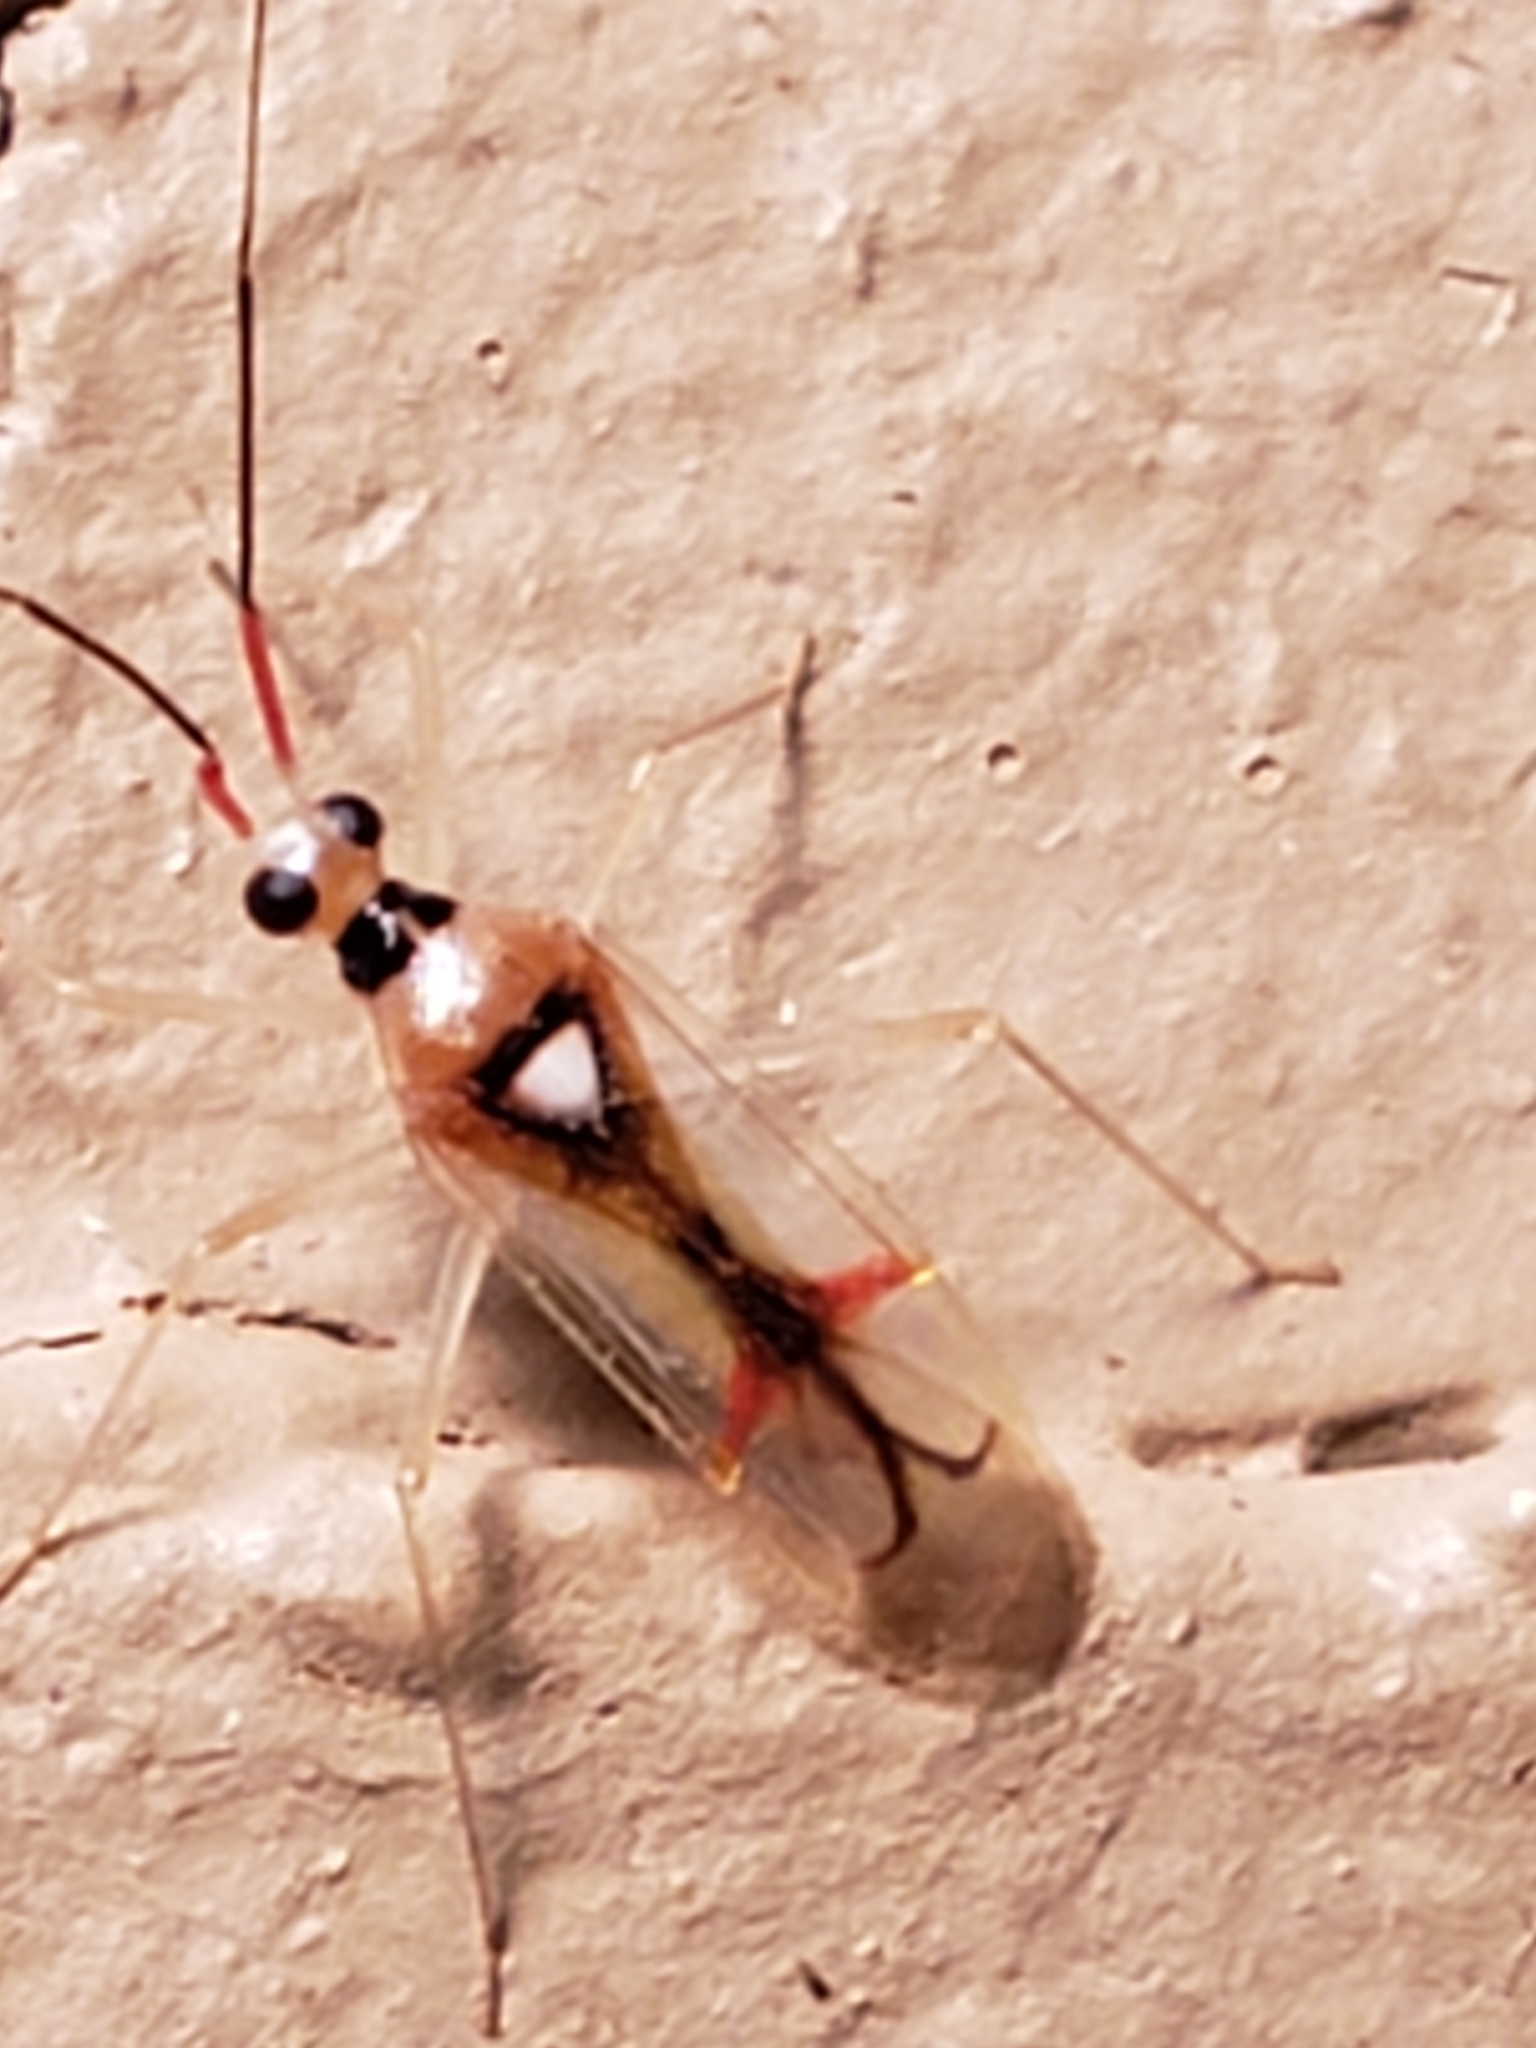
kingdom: Animalia
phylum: Arthropoda
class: Insecta
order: Hemiptera
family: Miridae
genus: Hyaliodes
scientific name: Hyaliodes harti
